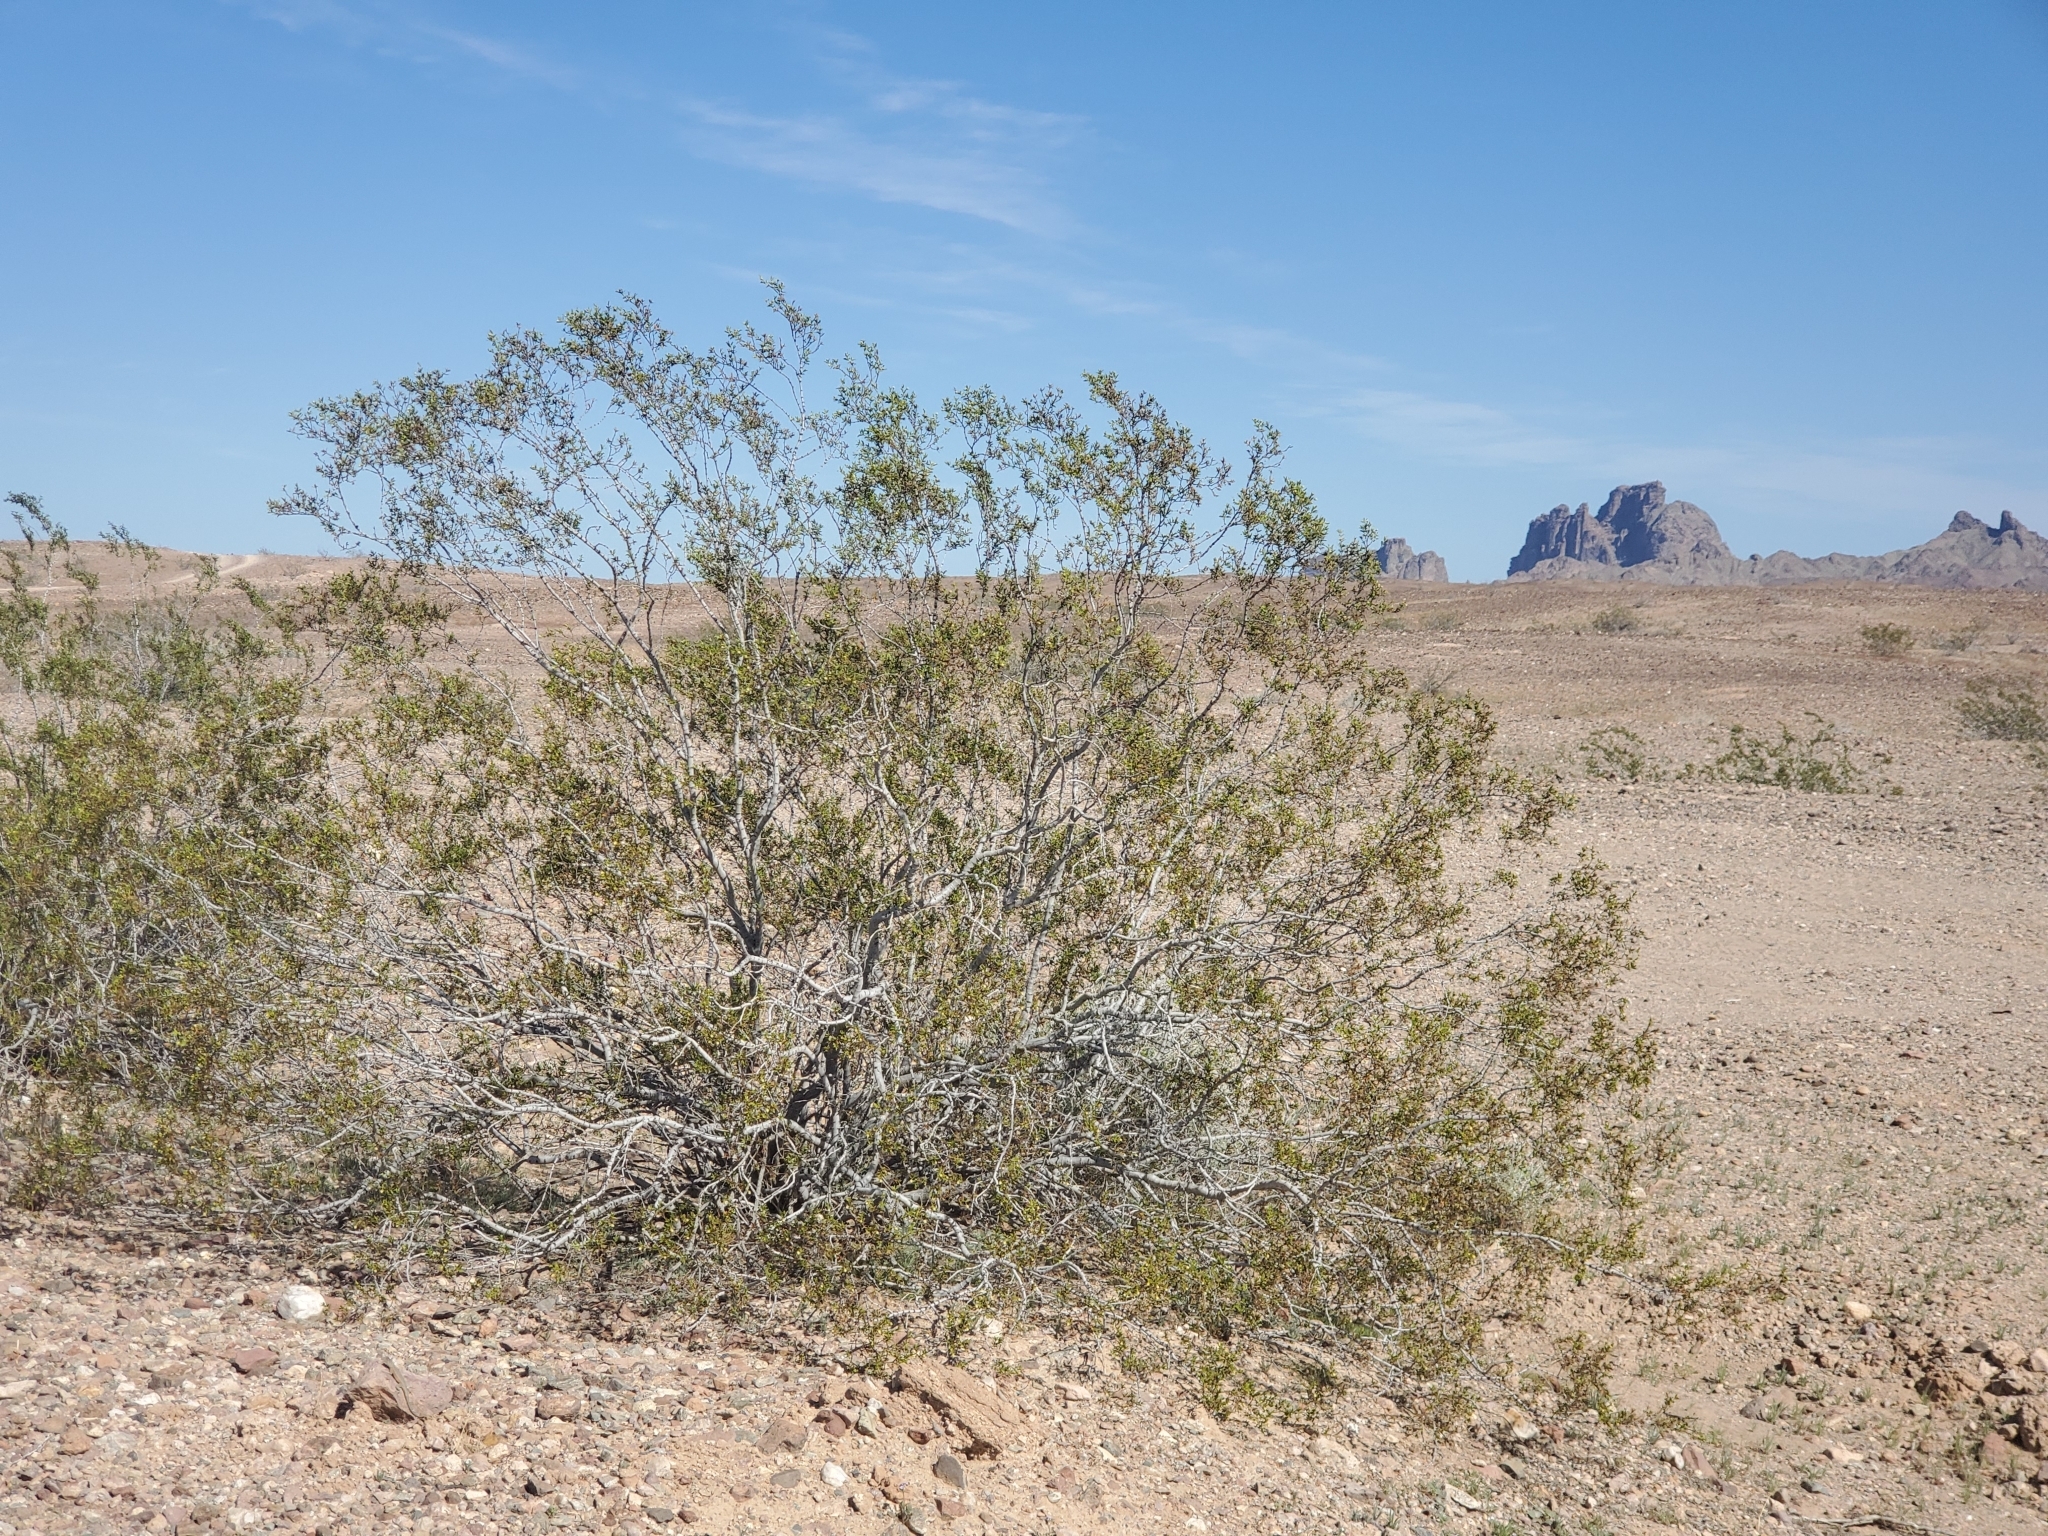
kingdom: Plantae
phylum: Tracheophyta
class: Magnoliopsida
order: Zygophyllales
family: Zygophyllaceae
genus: Larrea
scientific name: Larrea tridentata
